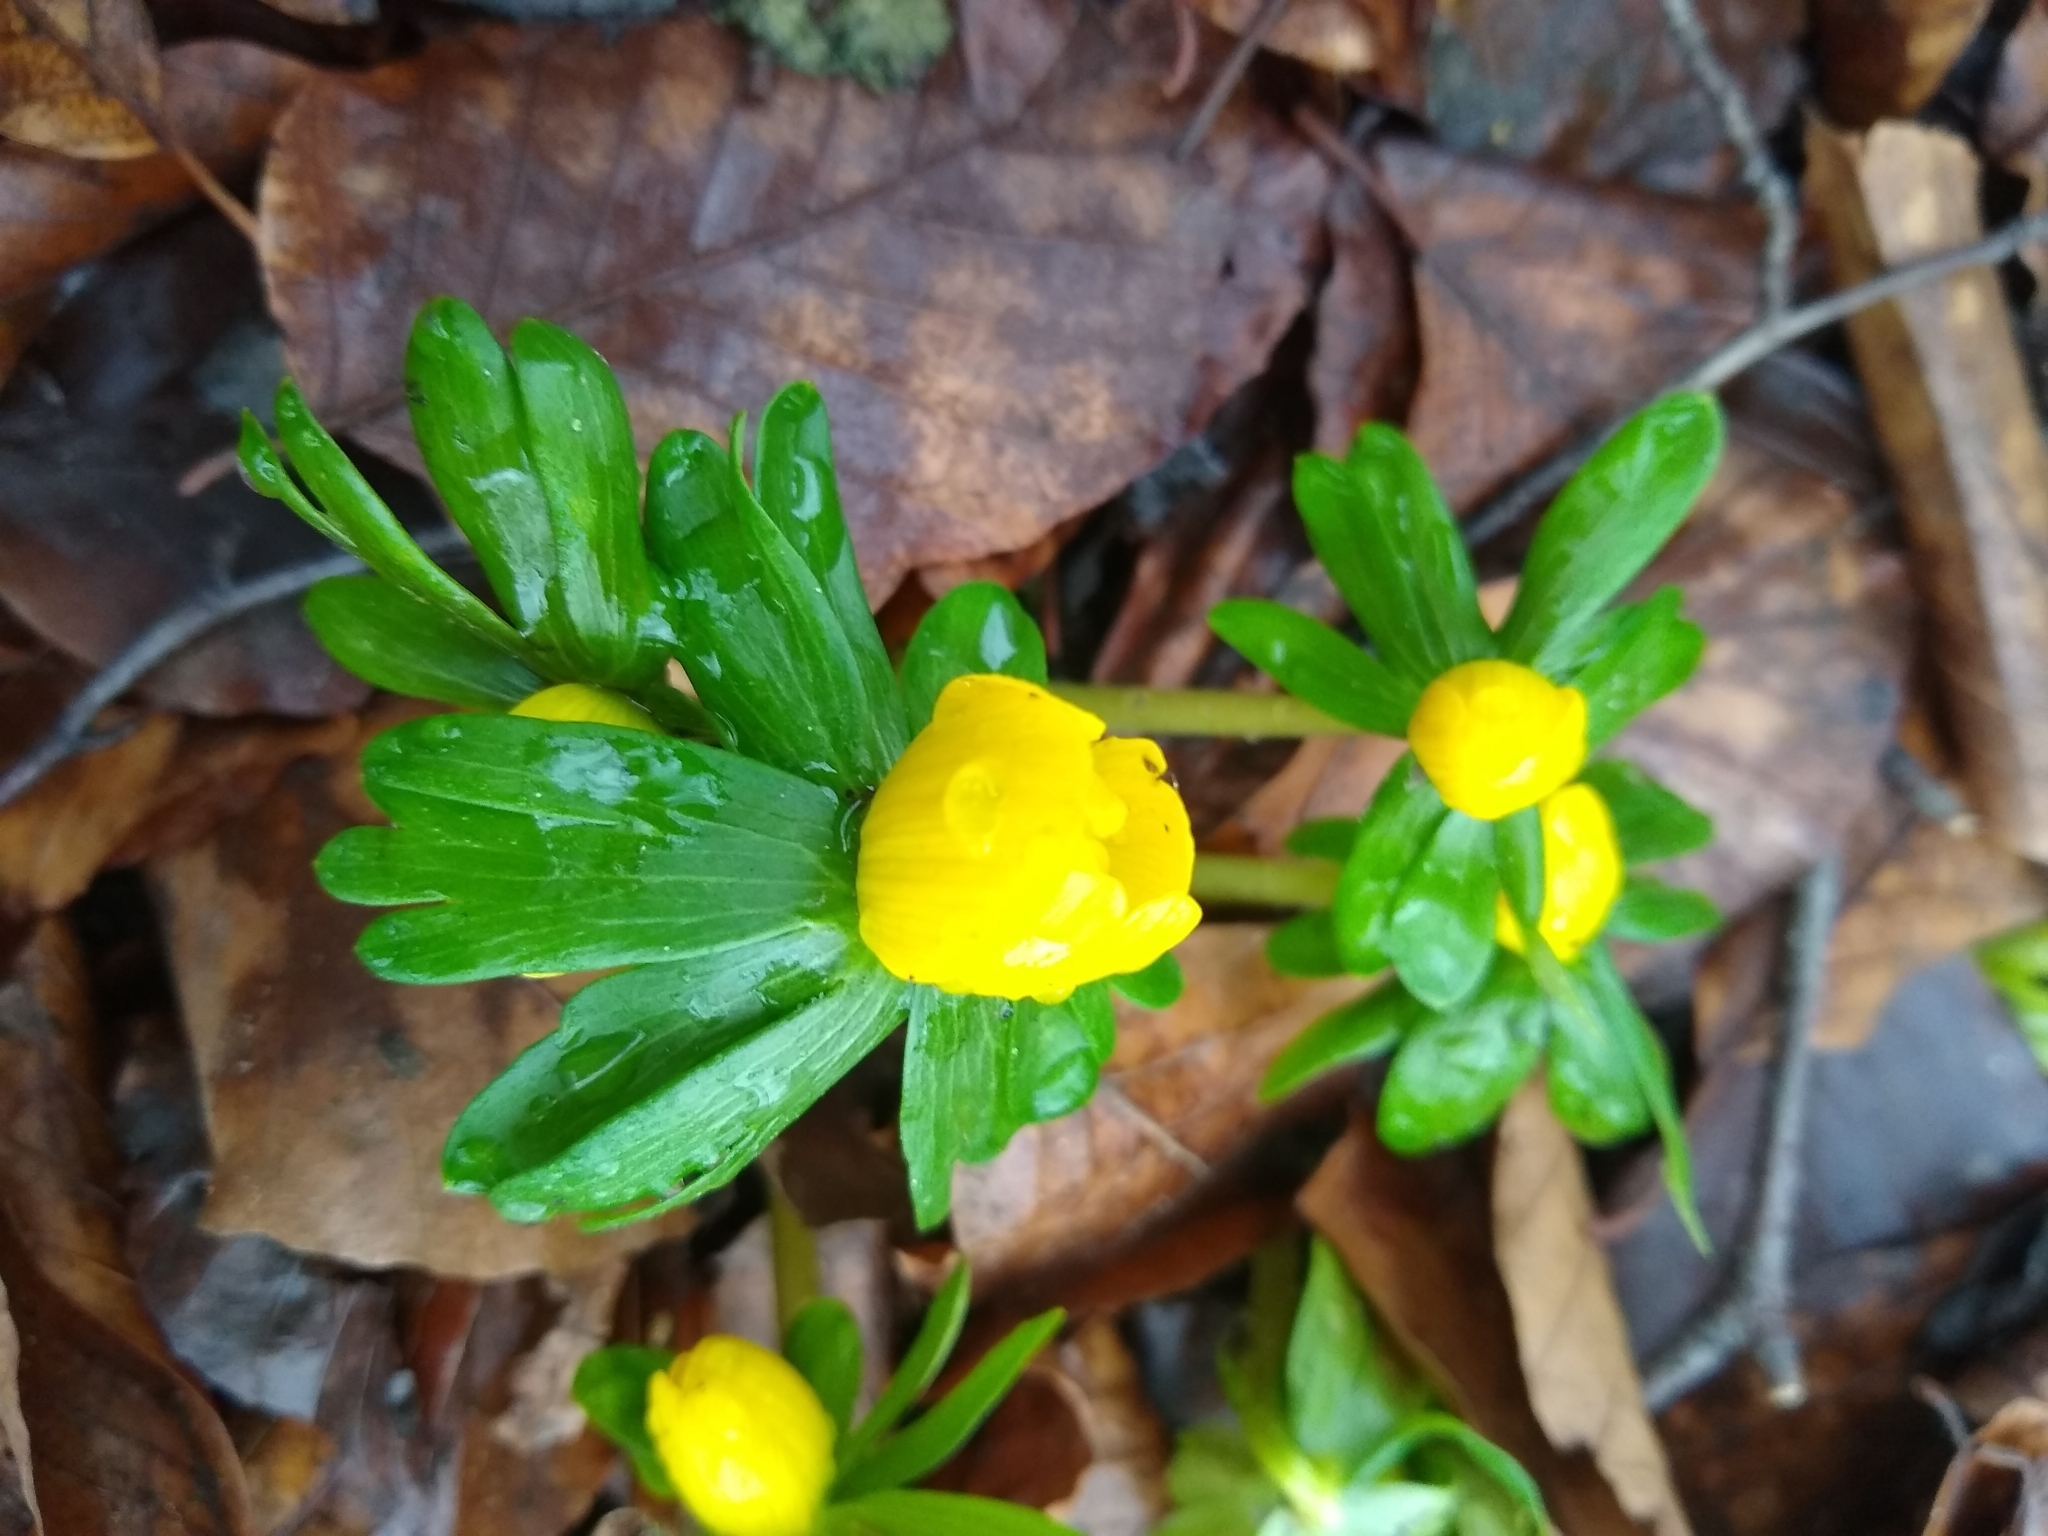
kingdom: Plantae
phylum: Tracheophyta
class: Magnoliopsida
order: Ranunculales
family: Ranunculaceae
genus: Eranthis
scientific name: Eranthis hyemalis
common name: Winter aconite
